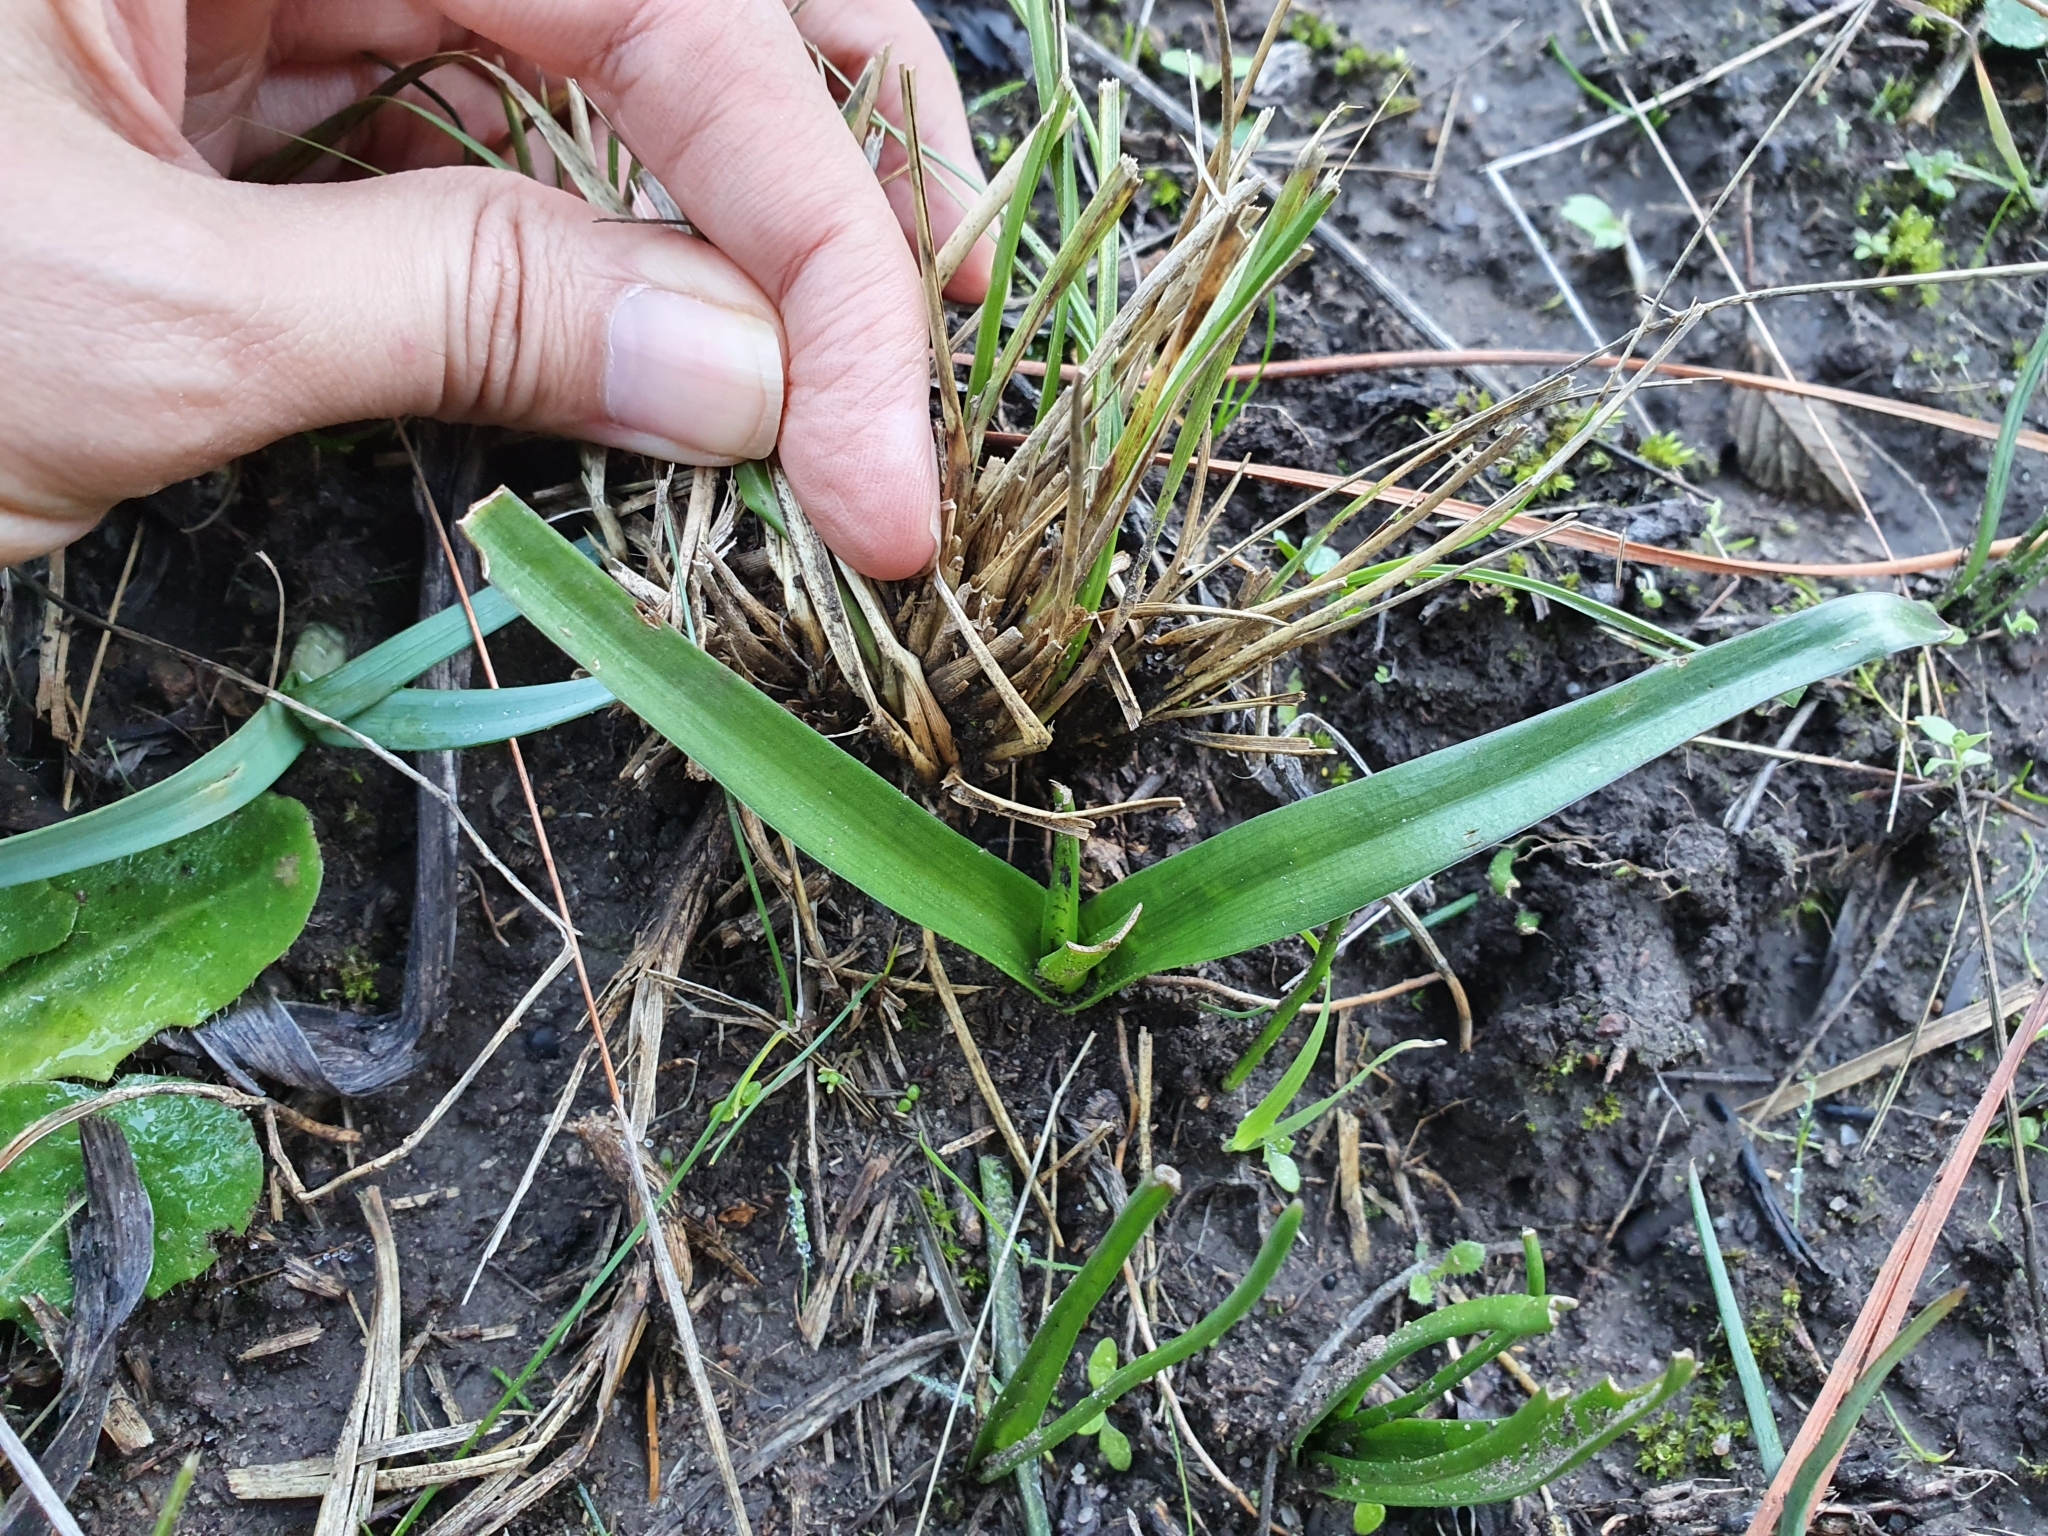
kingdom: Plantae
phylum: Tracheophyta
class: Liliopsida
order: Asparagales
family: Asparagaceae
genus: Barnardia
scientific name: Barnardia numidica
